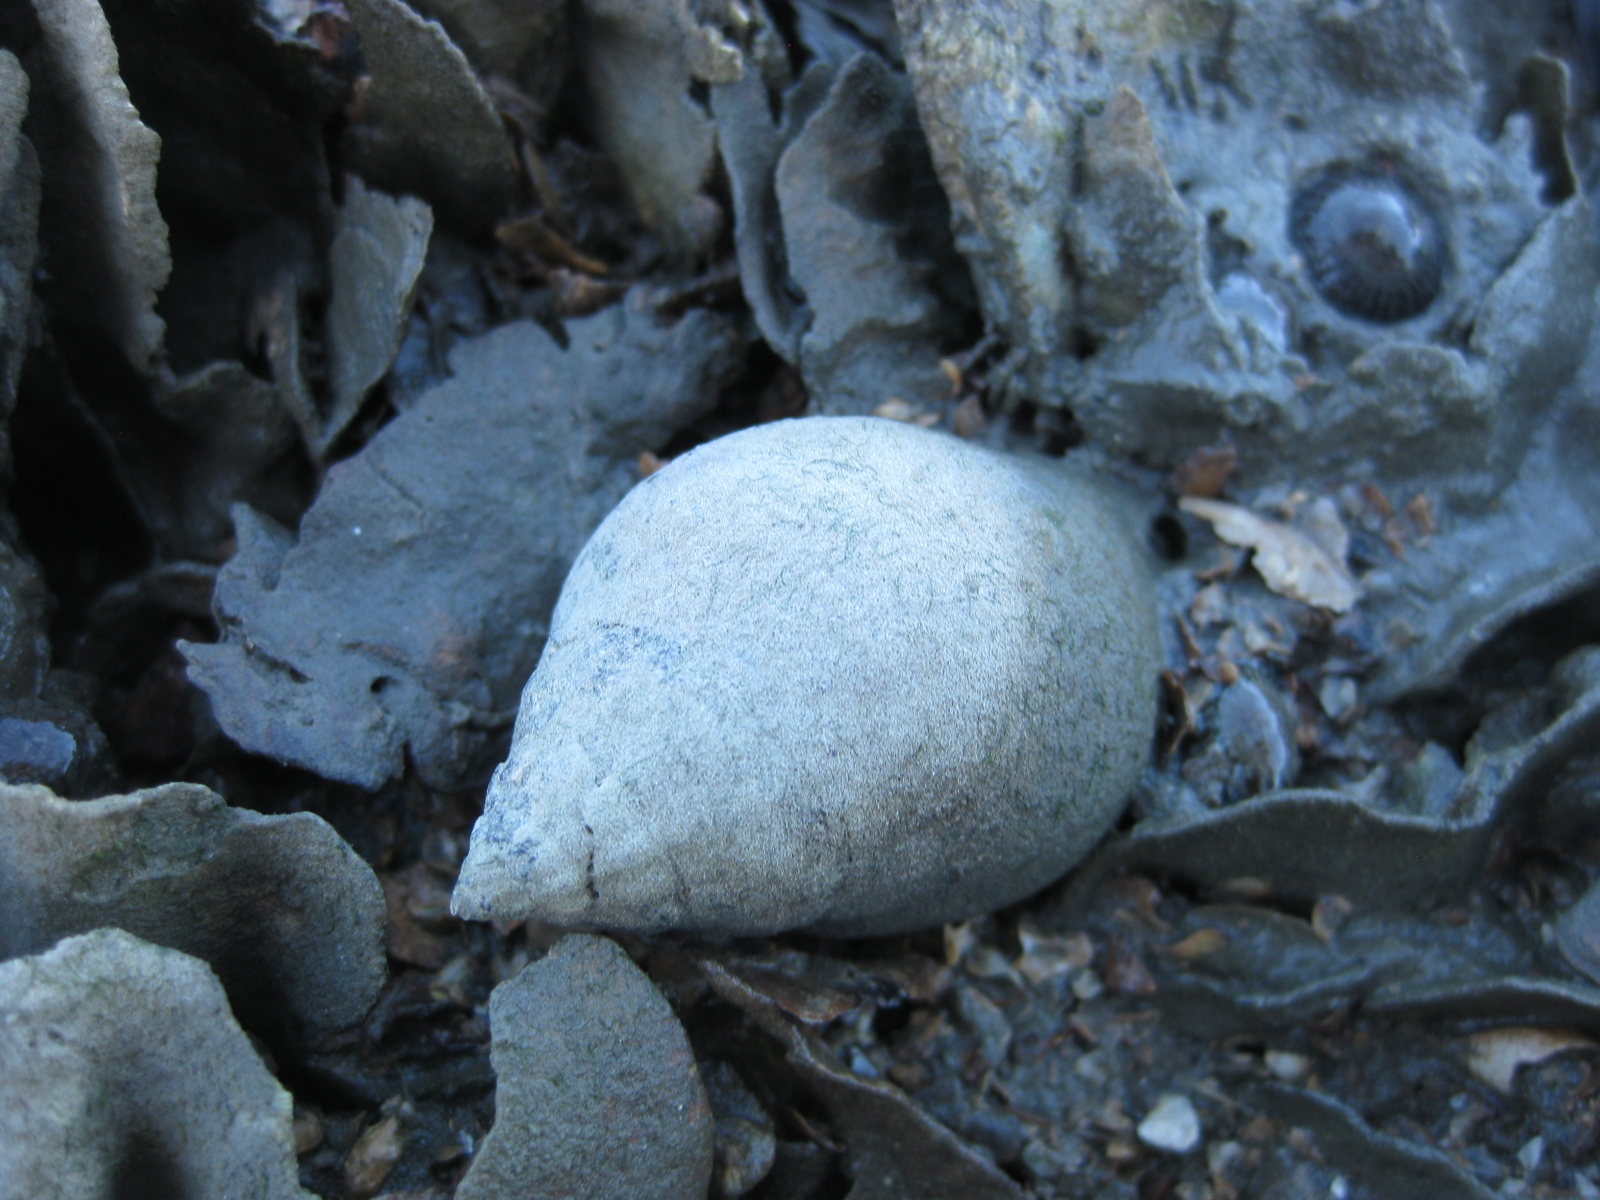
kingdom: Animalia
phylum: Mollusca
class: Gastropoda
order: Neogastropoda
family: Cominellidae
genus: Cominella
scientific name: Cominella adspersa
